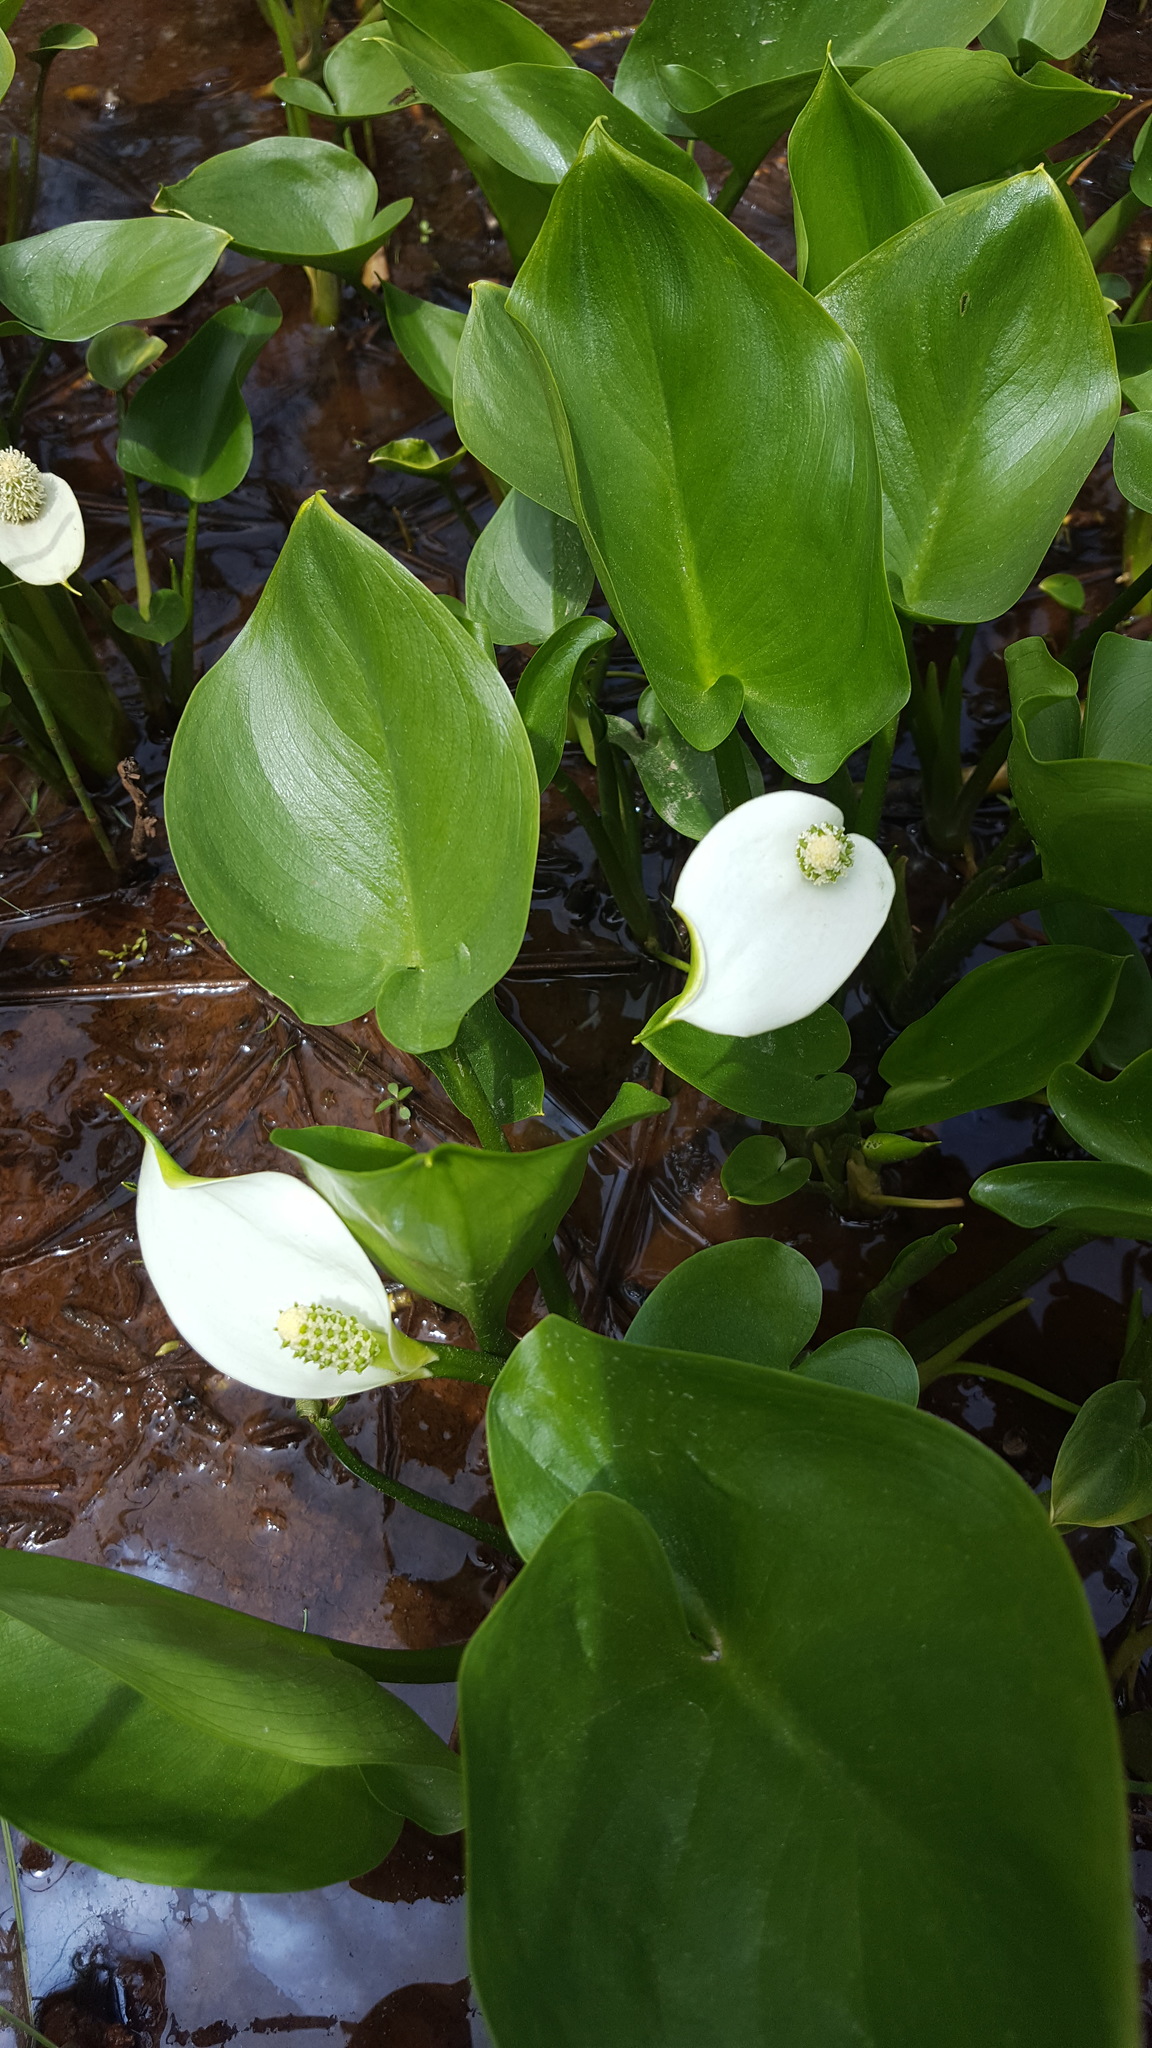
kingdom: Plantae
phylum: Tracheophyta
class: Liliopsida
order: Alismatales
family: Araceae
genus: Calla
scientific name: Calla palustris
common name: Bog arum
